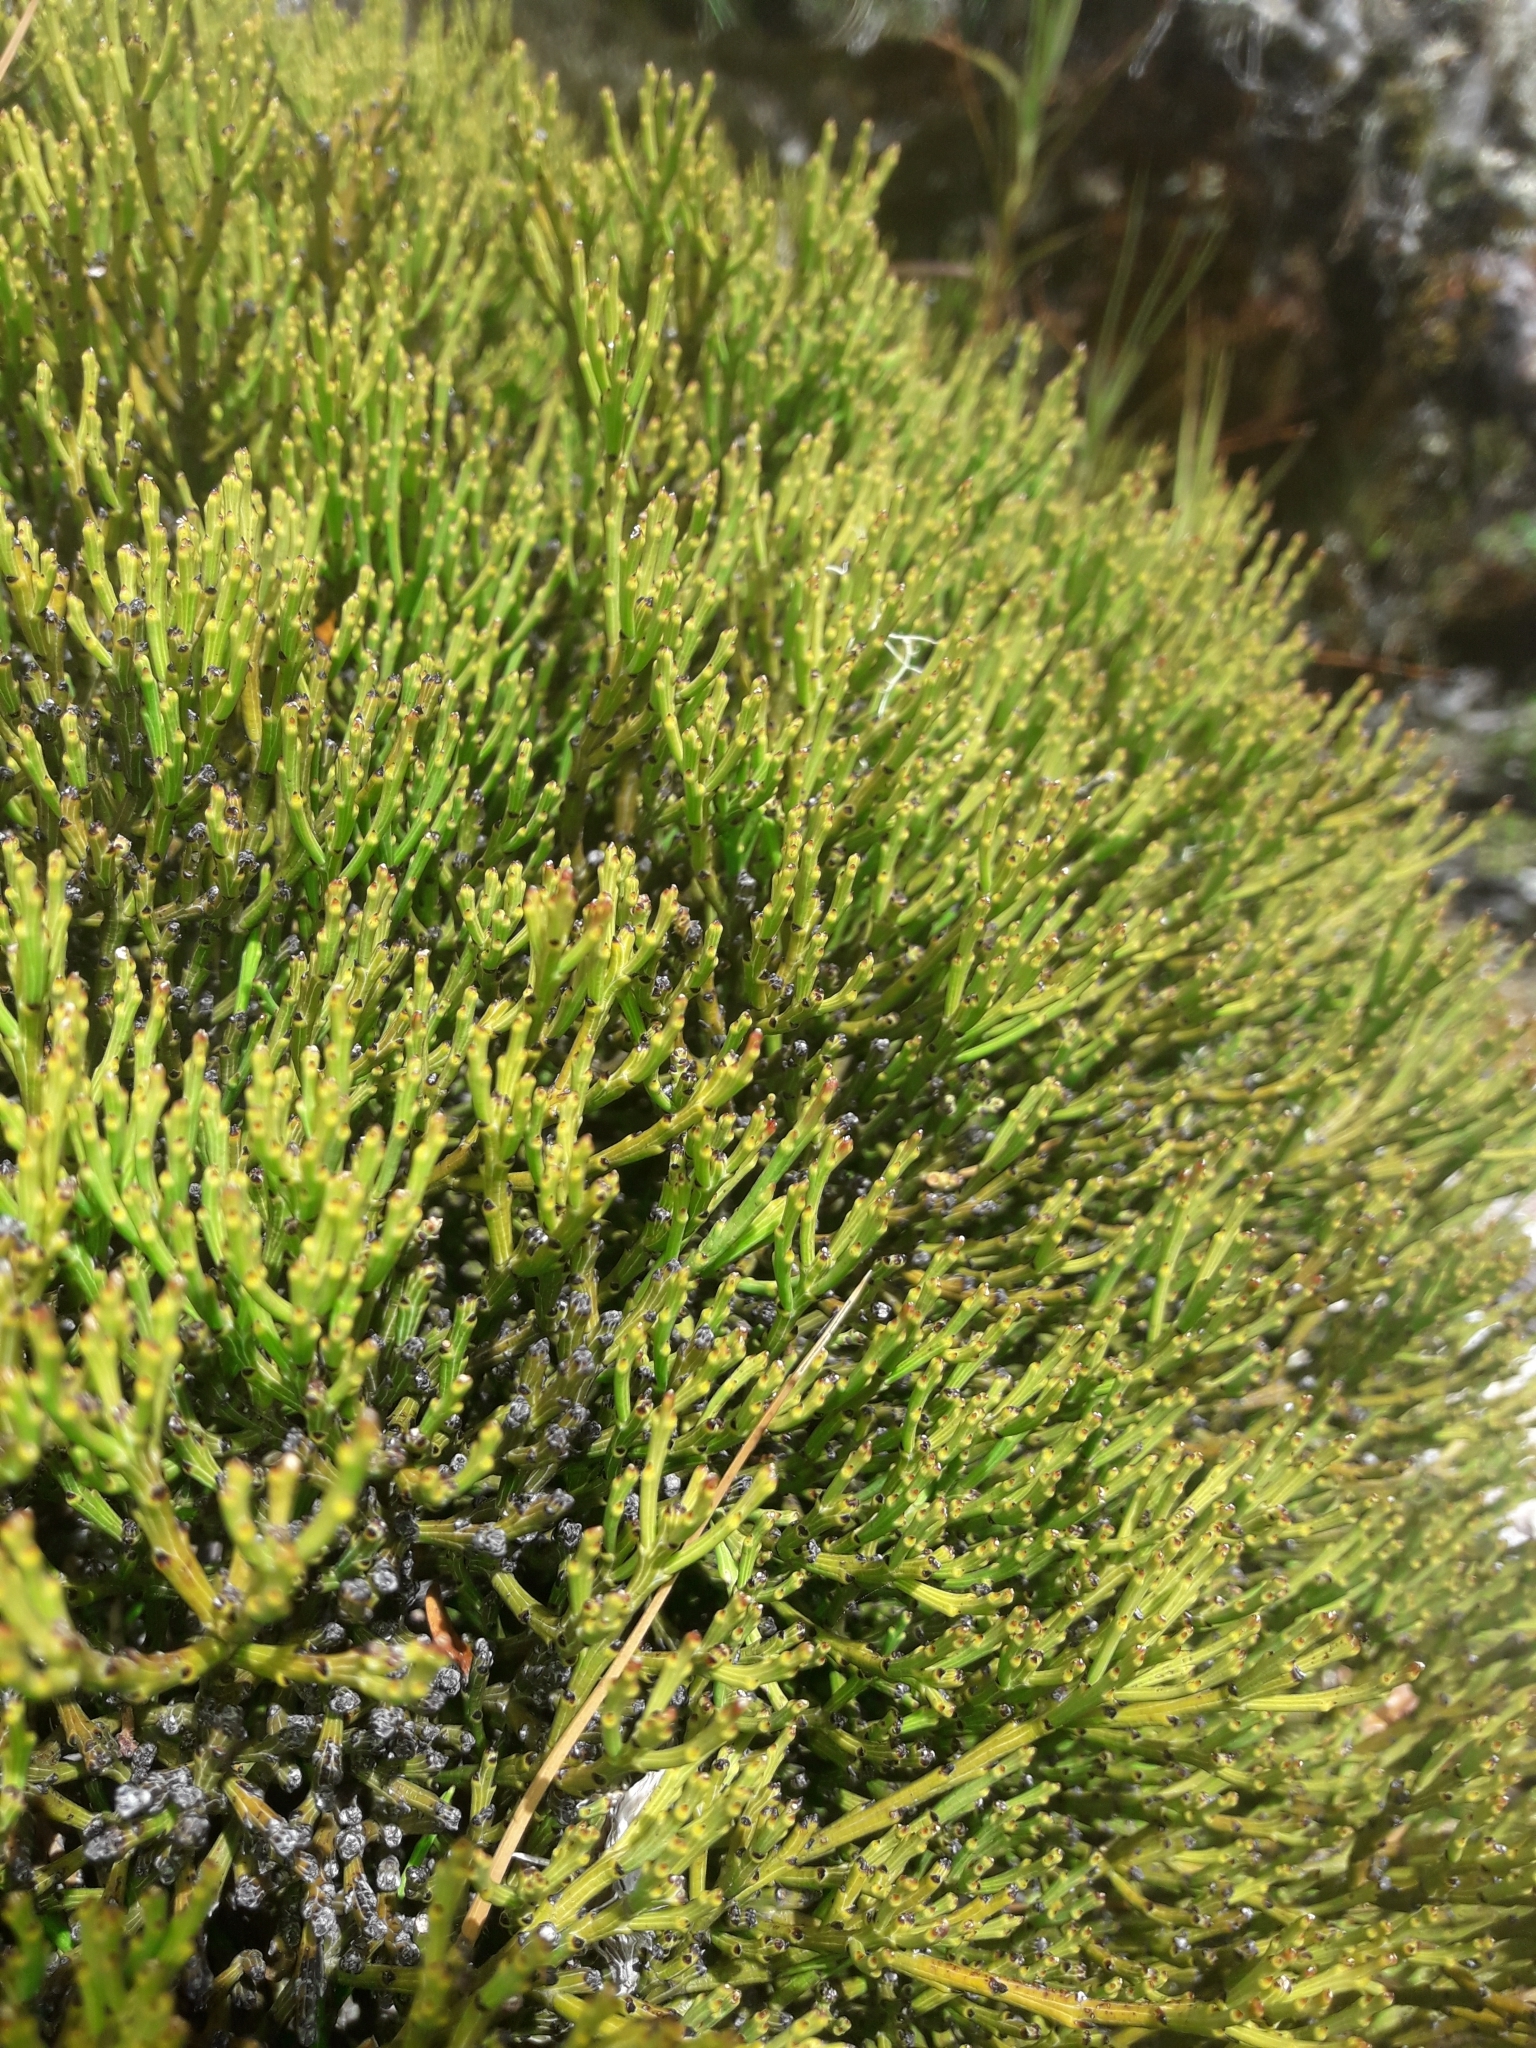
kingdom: Plantae
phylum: Tracheophyta
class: Magnoliopsida
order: Santalales
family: Santalaceae
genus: Exocarpos
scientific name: Exocarpos bidwillii
